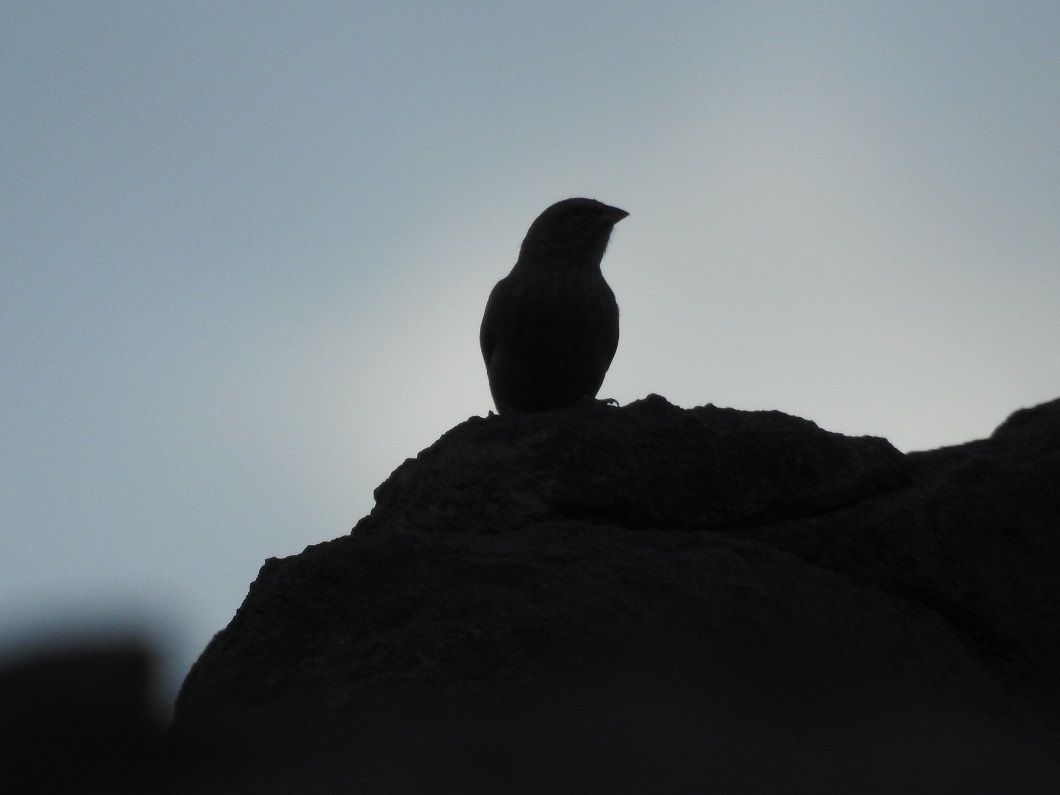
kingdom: Animalia
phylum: Chordata
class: Aves
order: Passeriformes
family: Emberizidae
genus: Emberiza
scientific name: Emberiza sahari
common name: House bunting
